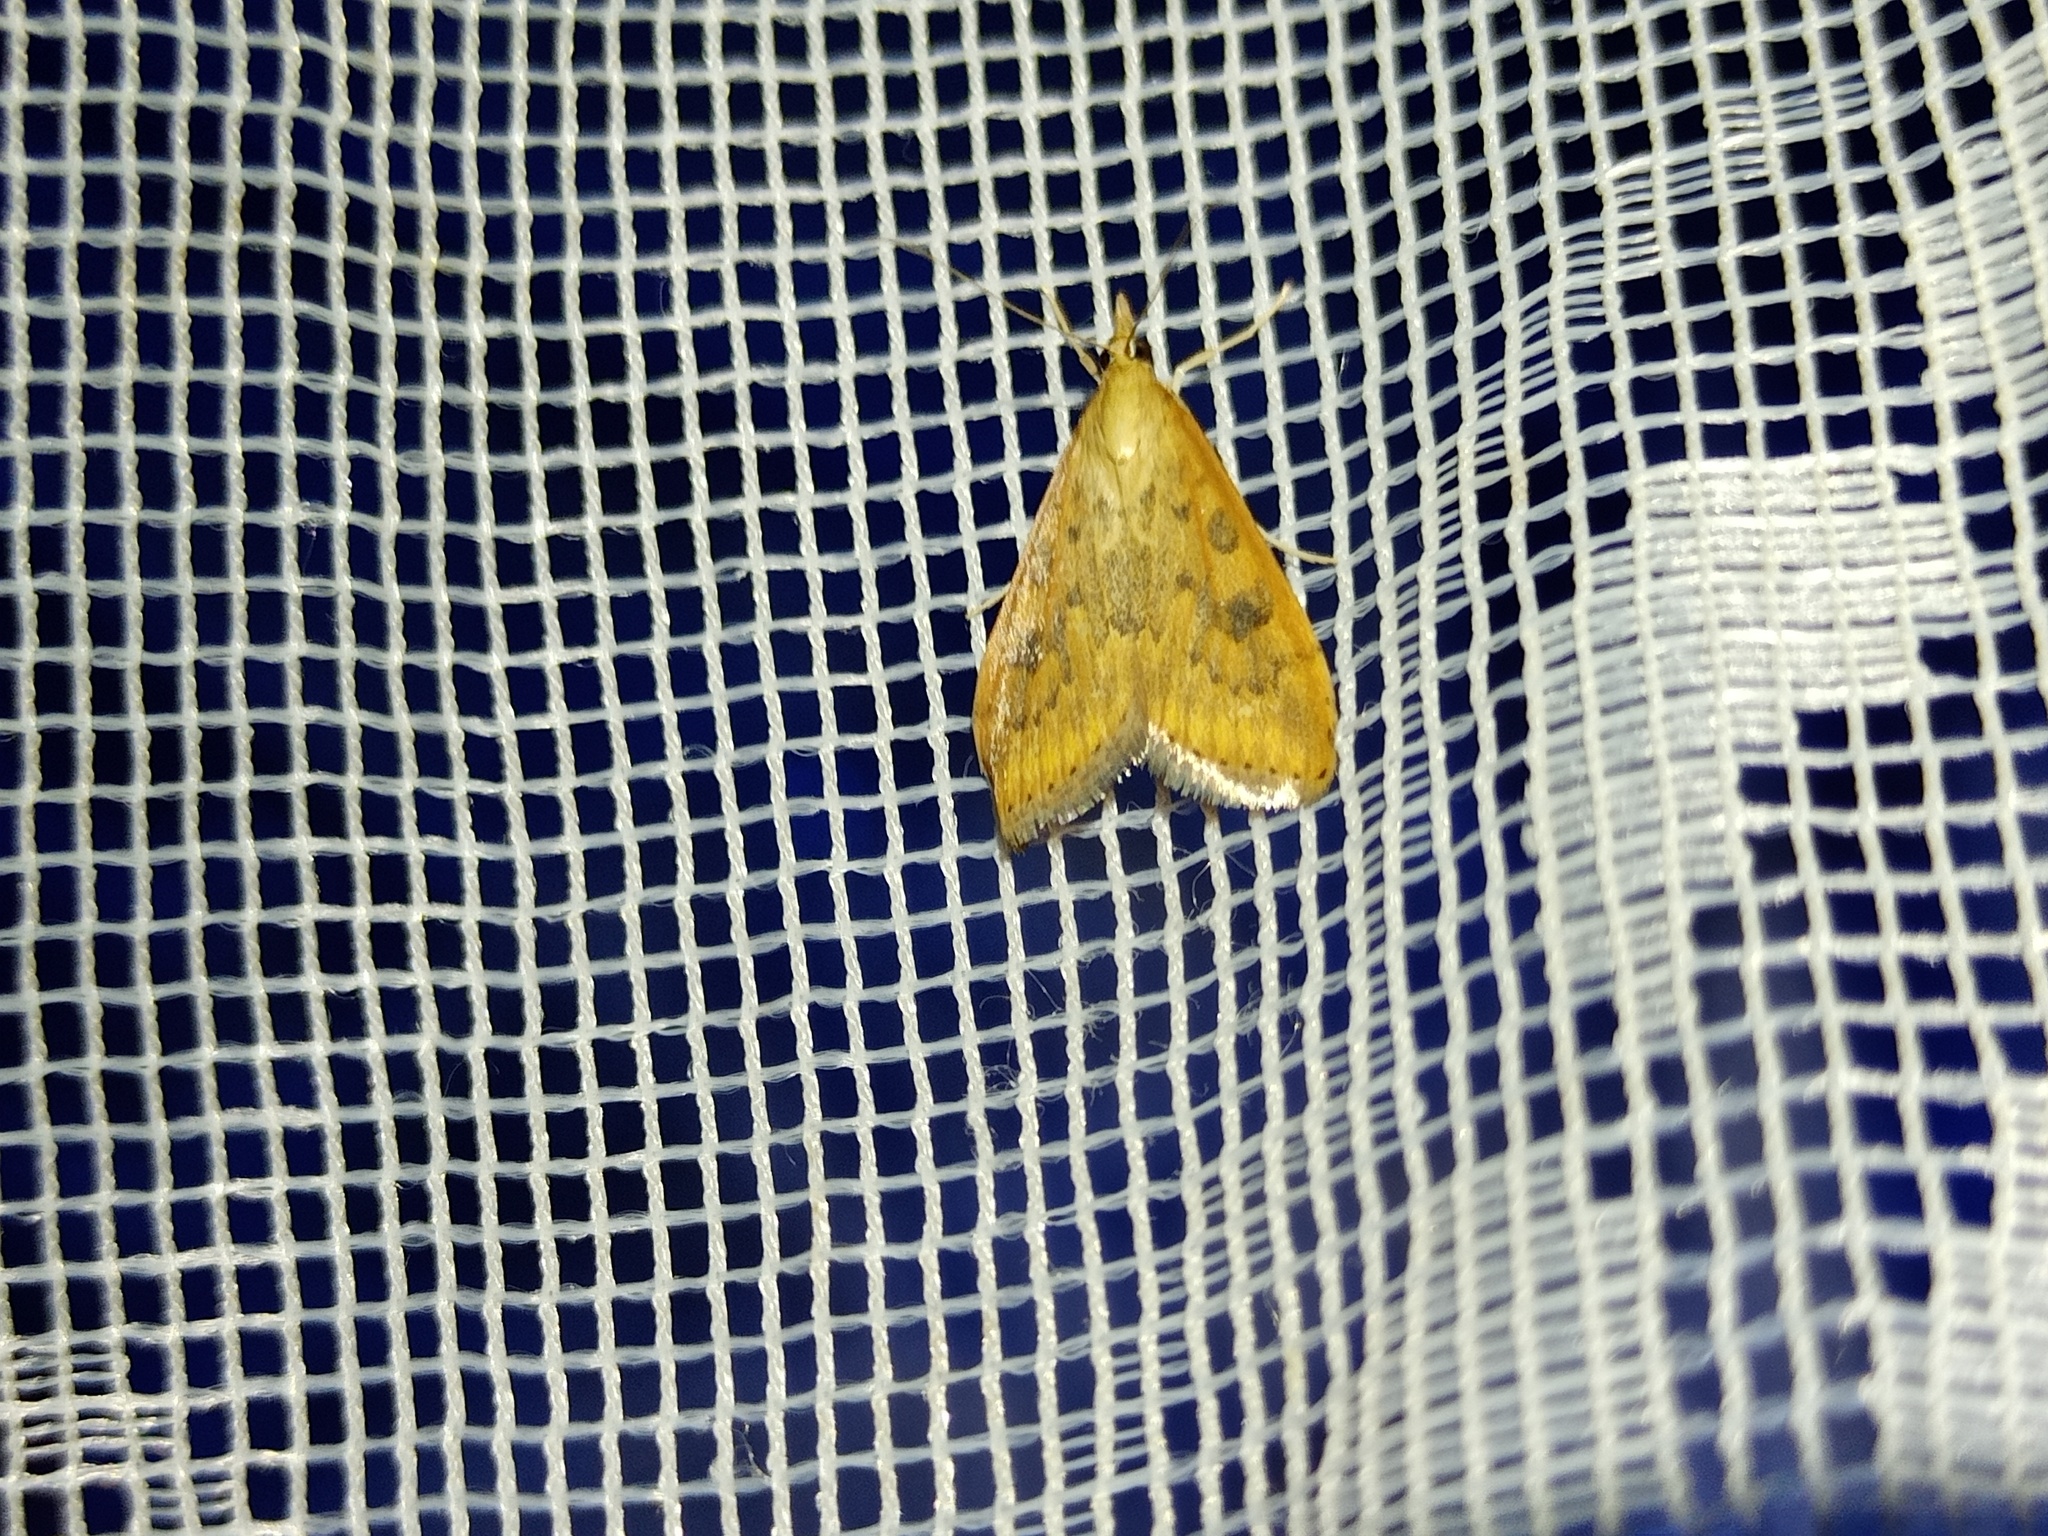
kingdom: Animalia
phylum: Arthropoda
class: Insecta
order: Lepidoptera
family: Crambidae
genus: Udea
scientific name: Udea ferrugalis
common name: Rusty dot
